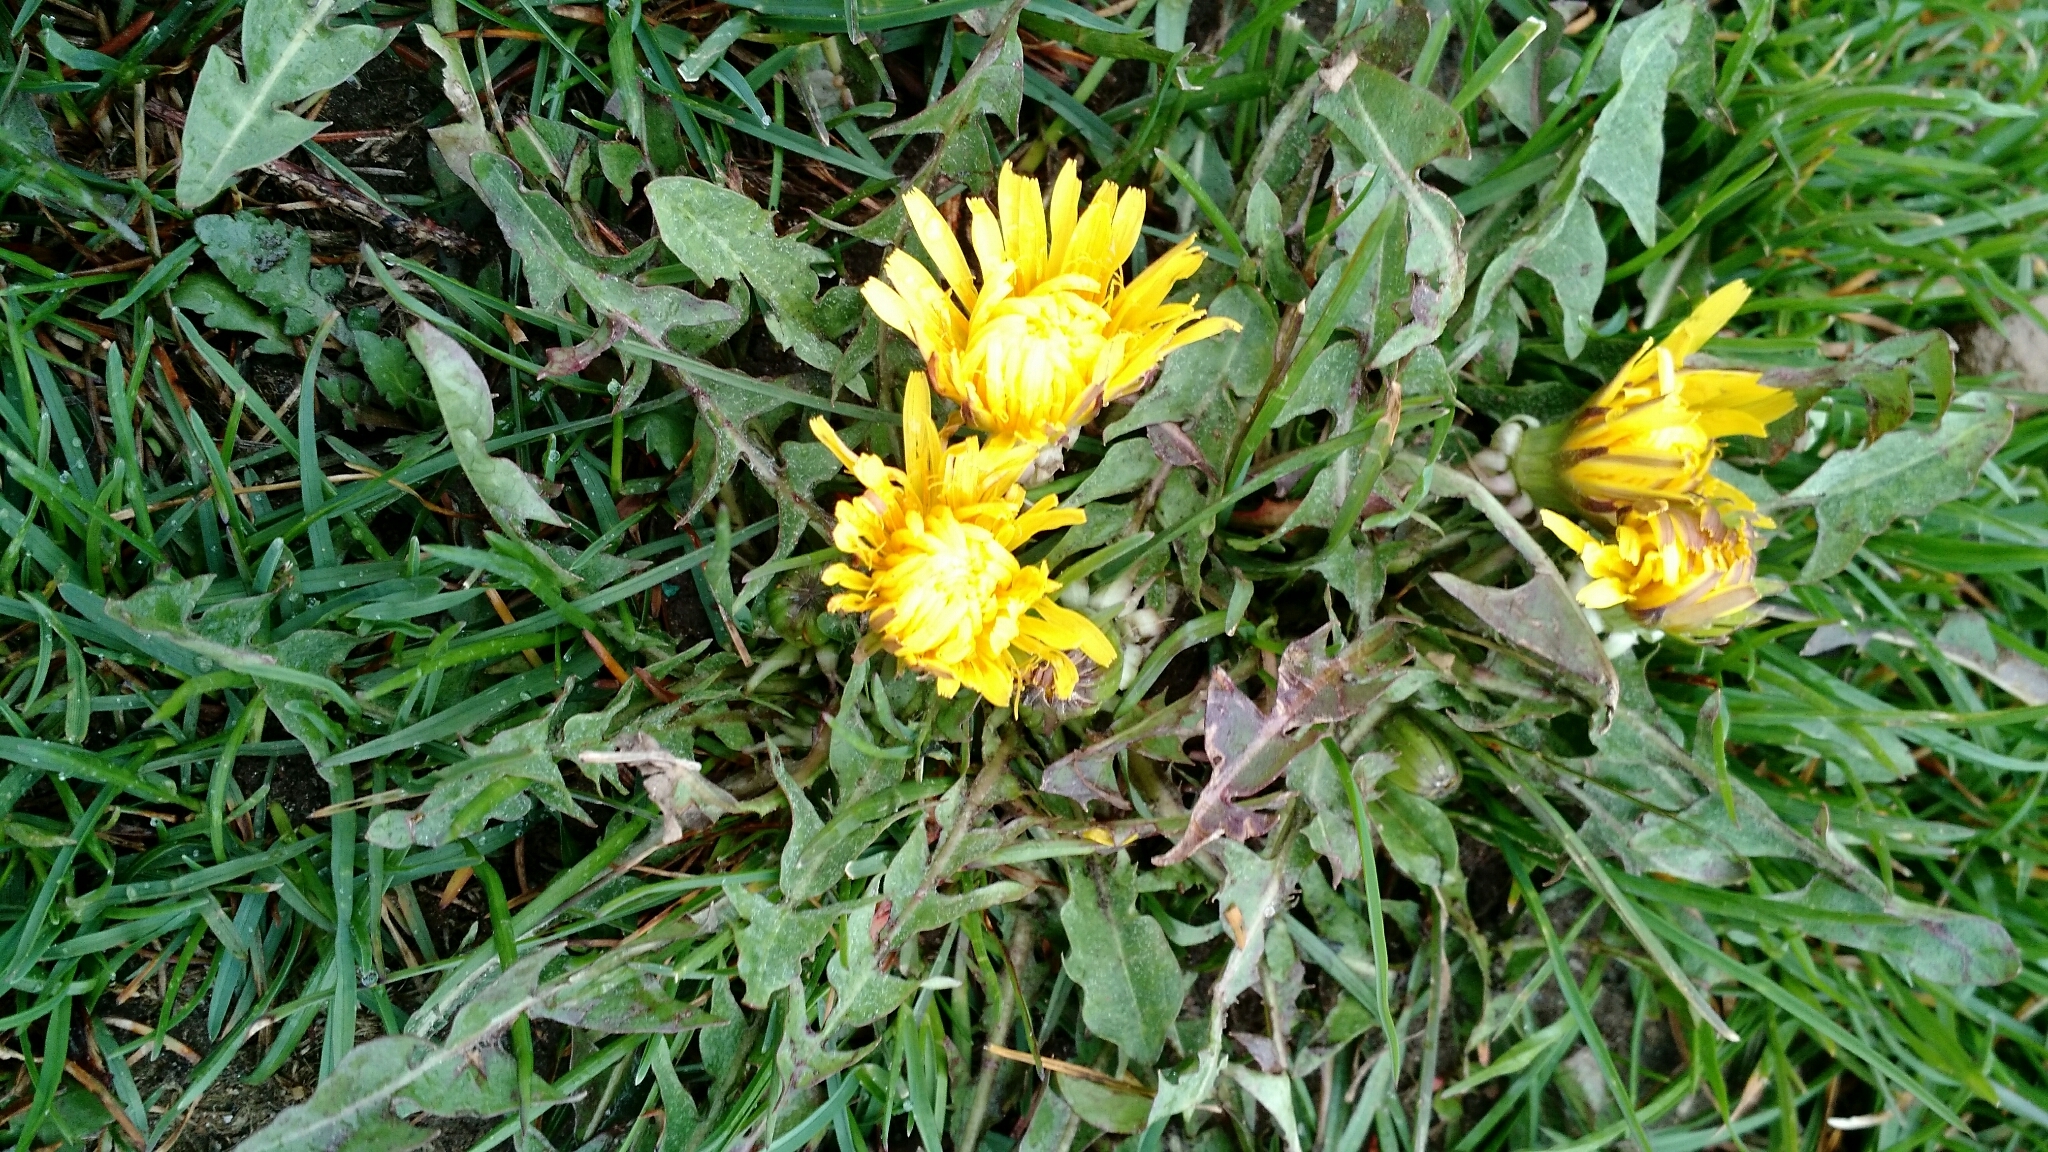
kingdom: Plantae
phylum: Tracheophyta
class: Magnoliopsida
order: Asterales
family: Asteraceae
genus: Taraxacum
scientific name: Taraxacum
